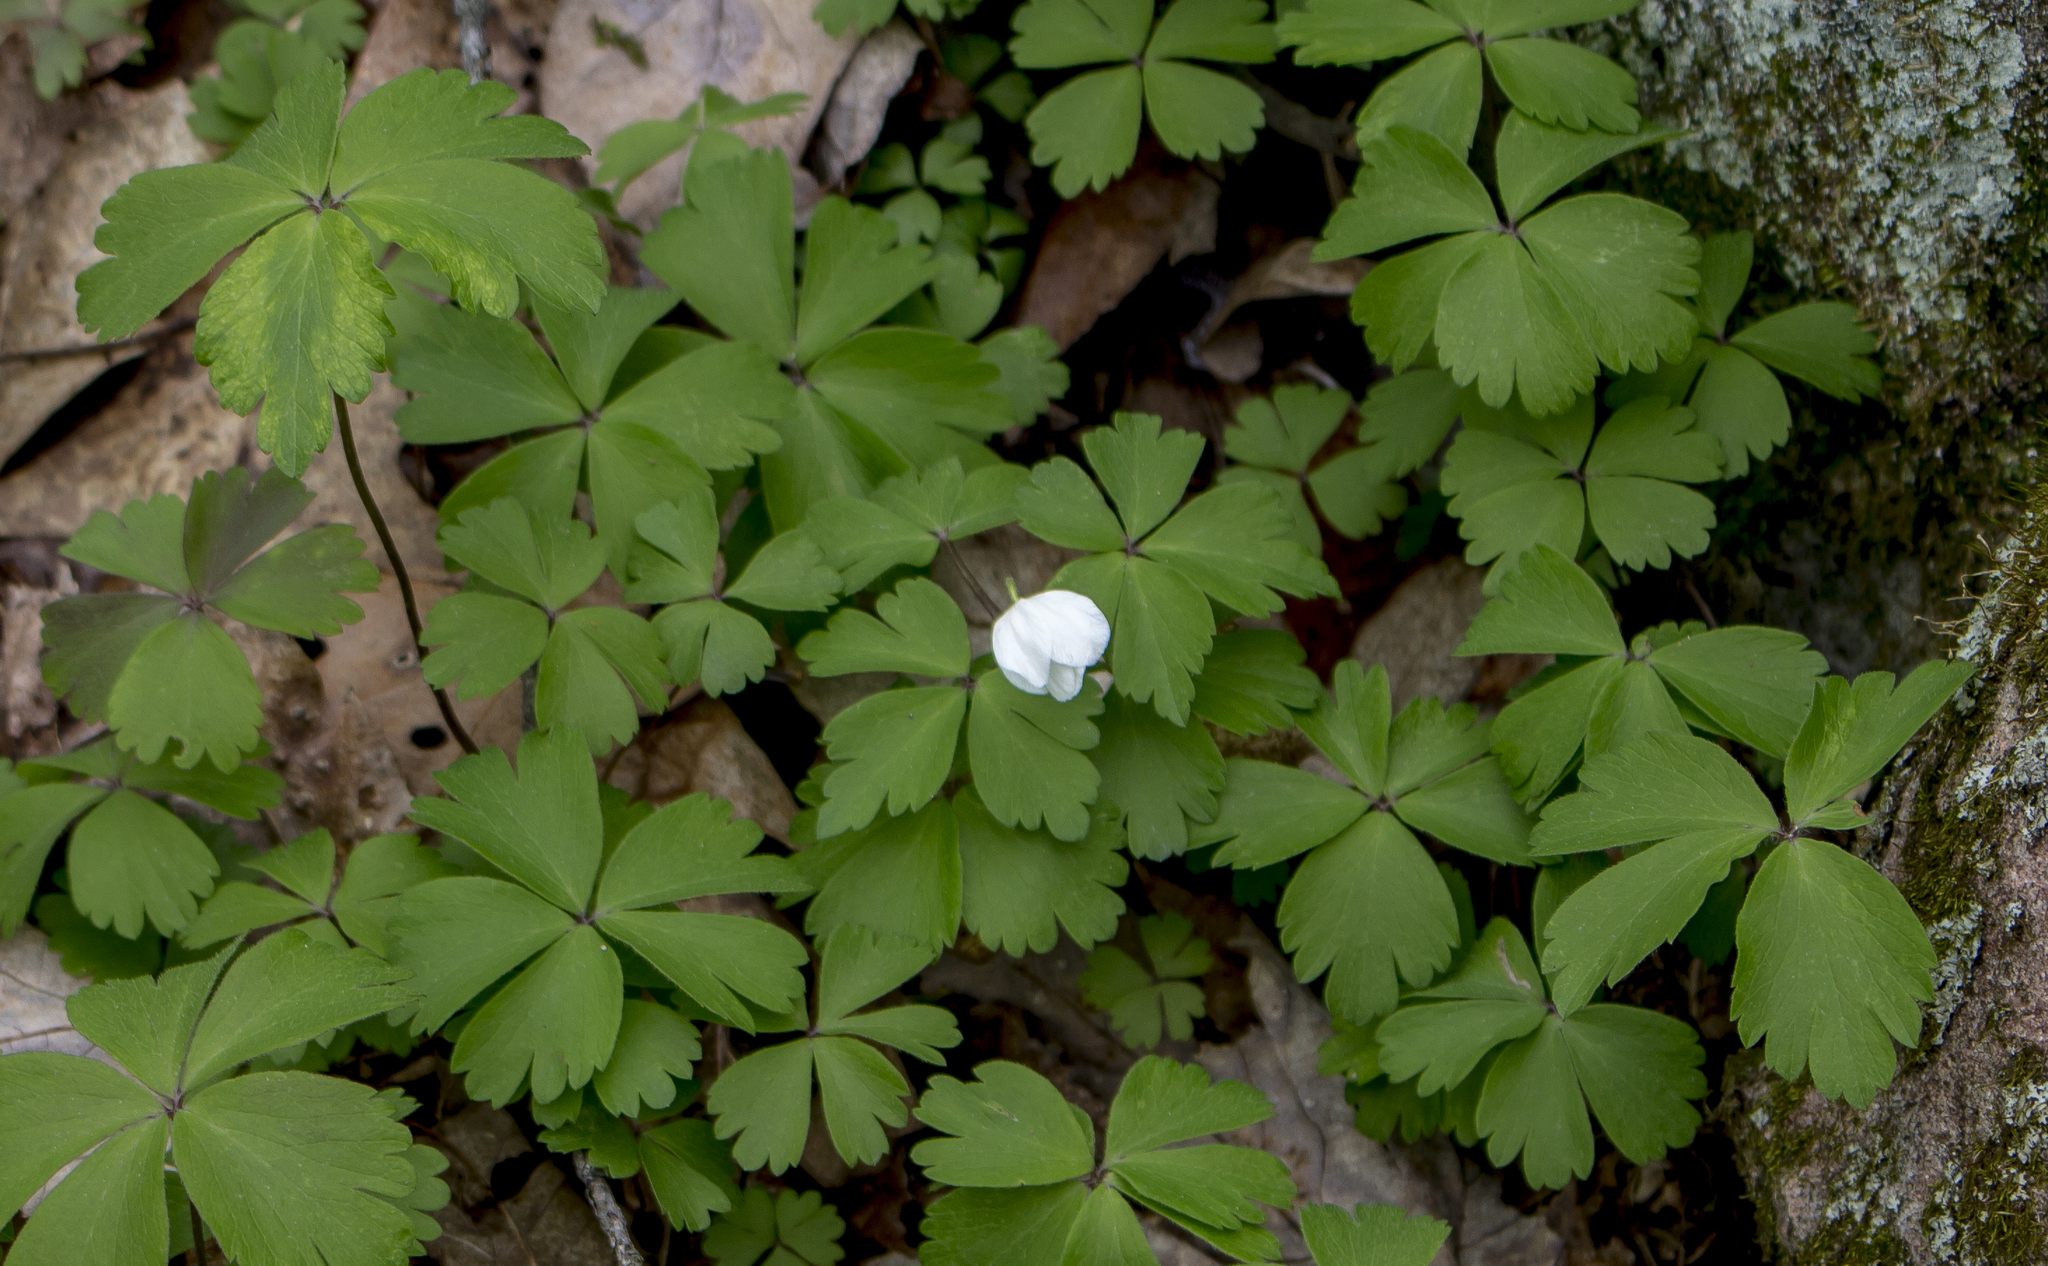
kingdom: Plantae
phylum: Tracheophyta
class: Magnoliopsida
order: Ranunculales
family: Ranunculaceae
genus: Anemone
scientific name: Anemone quinquefolia
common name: Wood anemone
